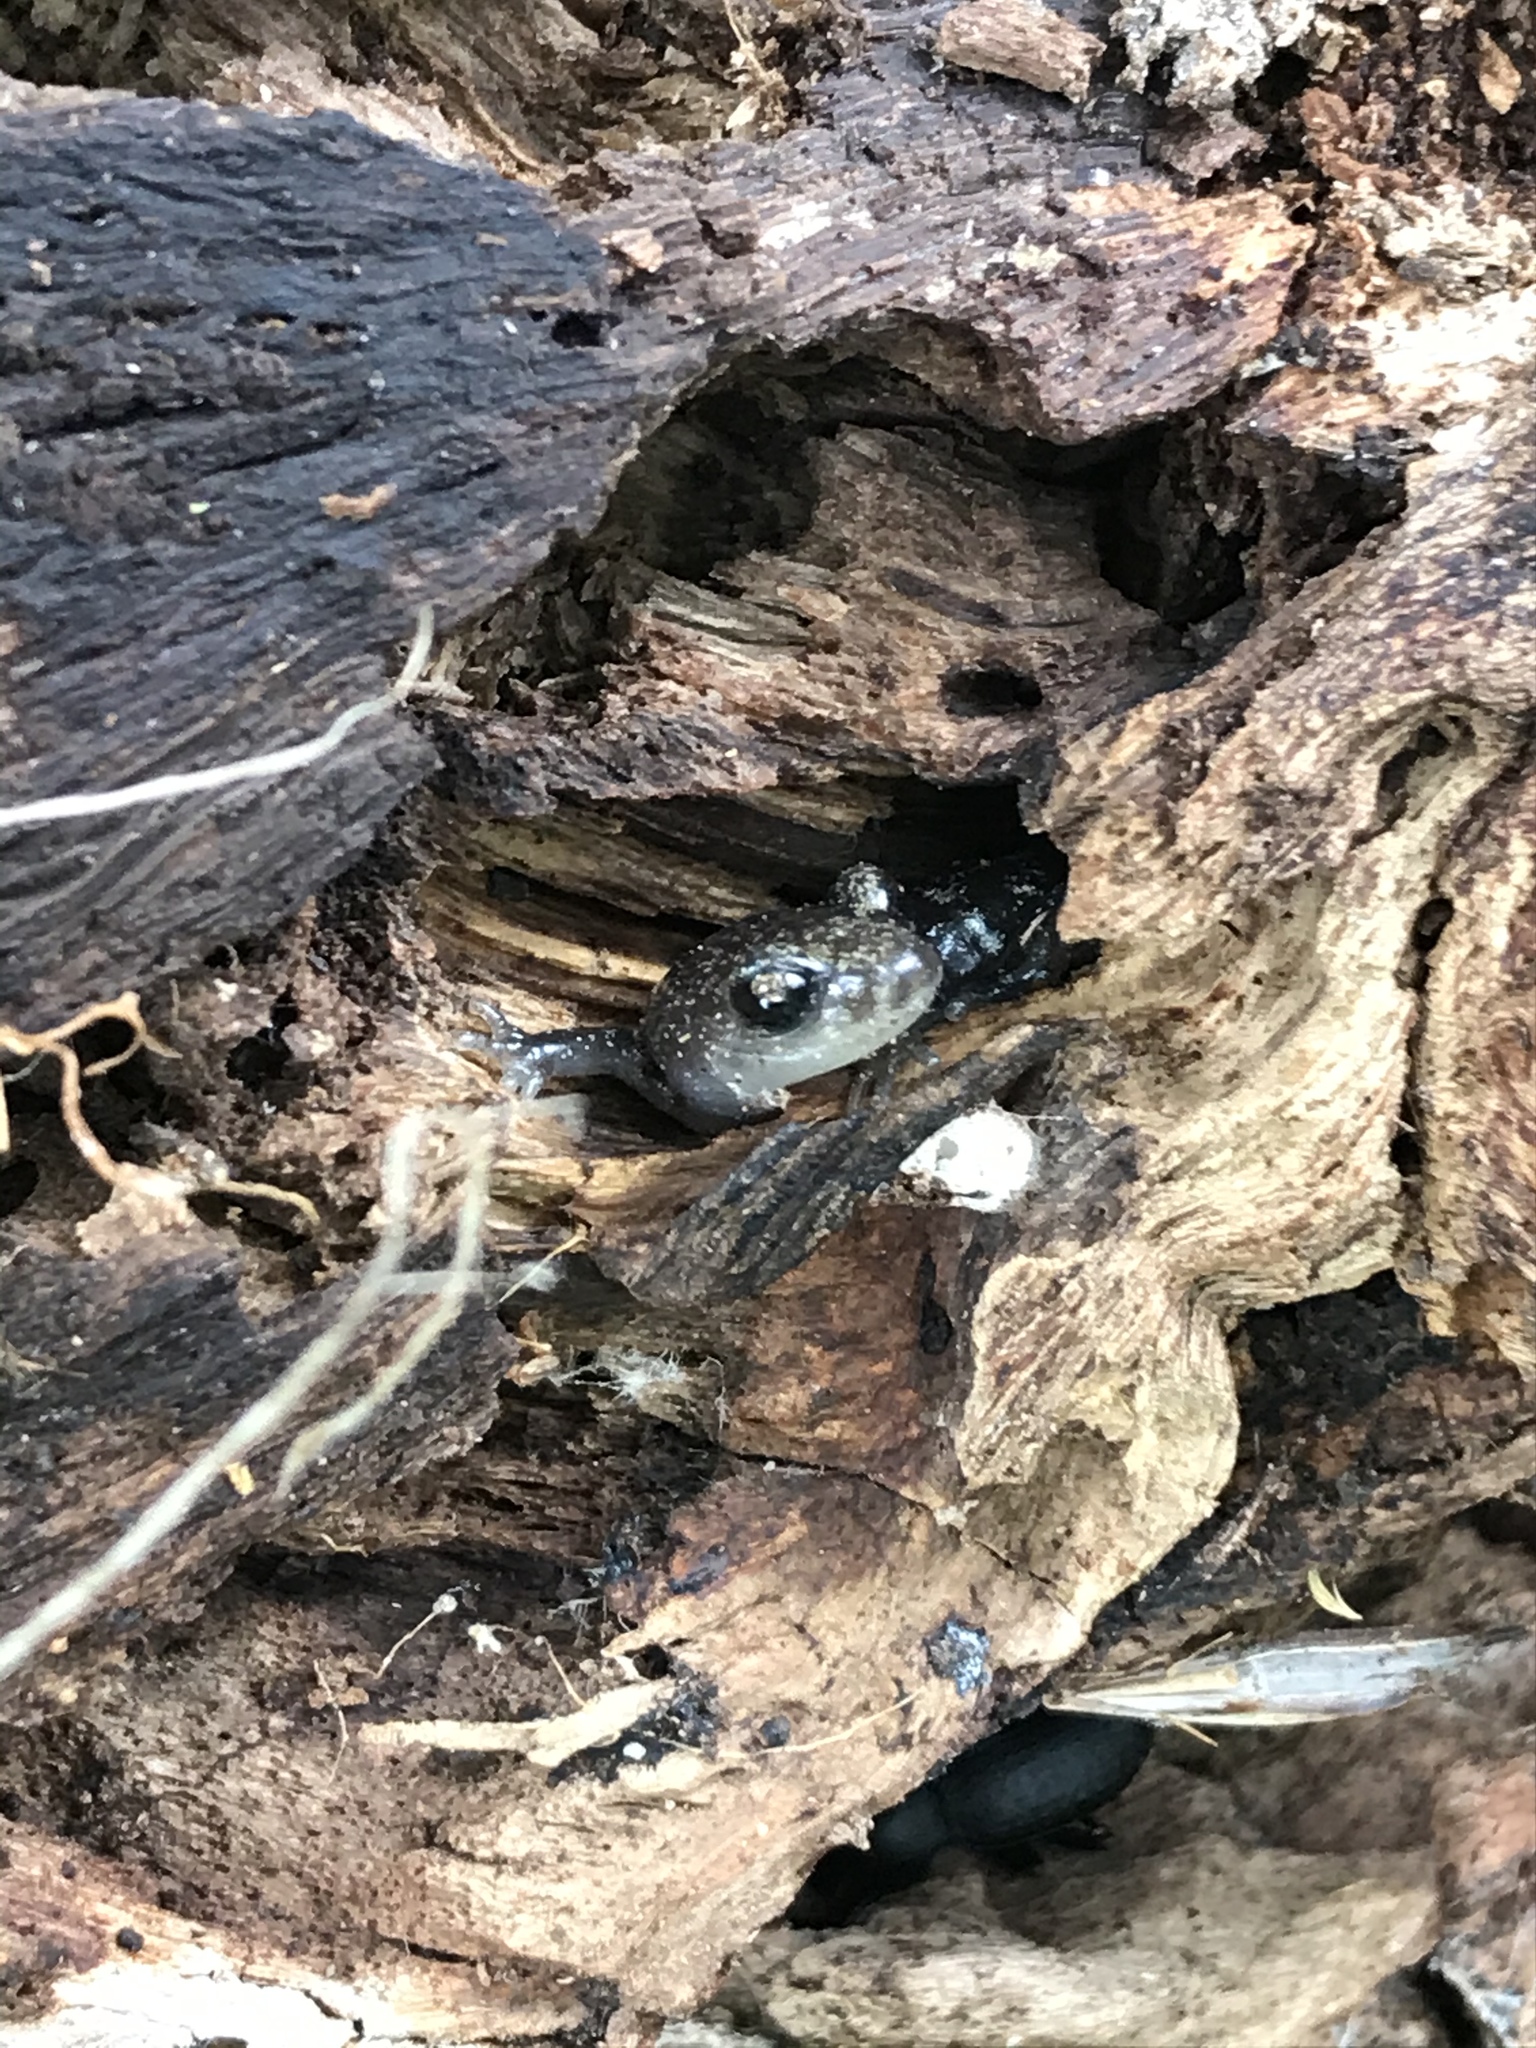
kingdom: Animalia
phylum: Chordata
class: Amphibia
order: Caudata
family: Plethodontidae
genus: Aneides
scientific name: Aneides lugubris
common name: Arboreal salamander
